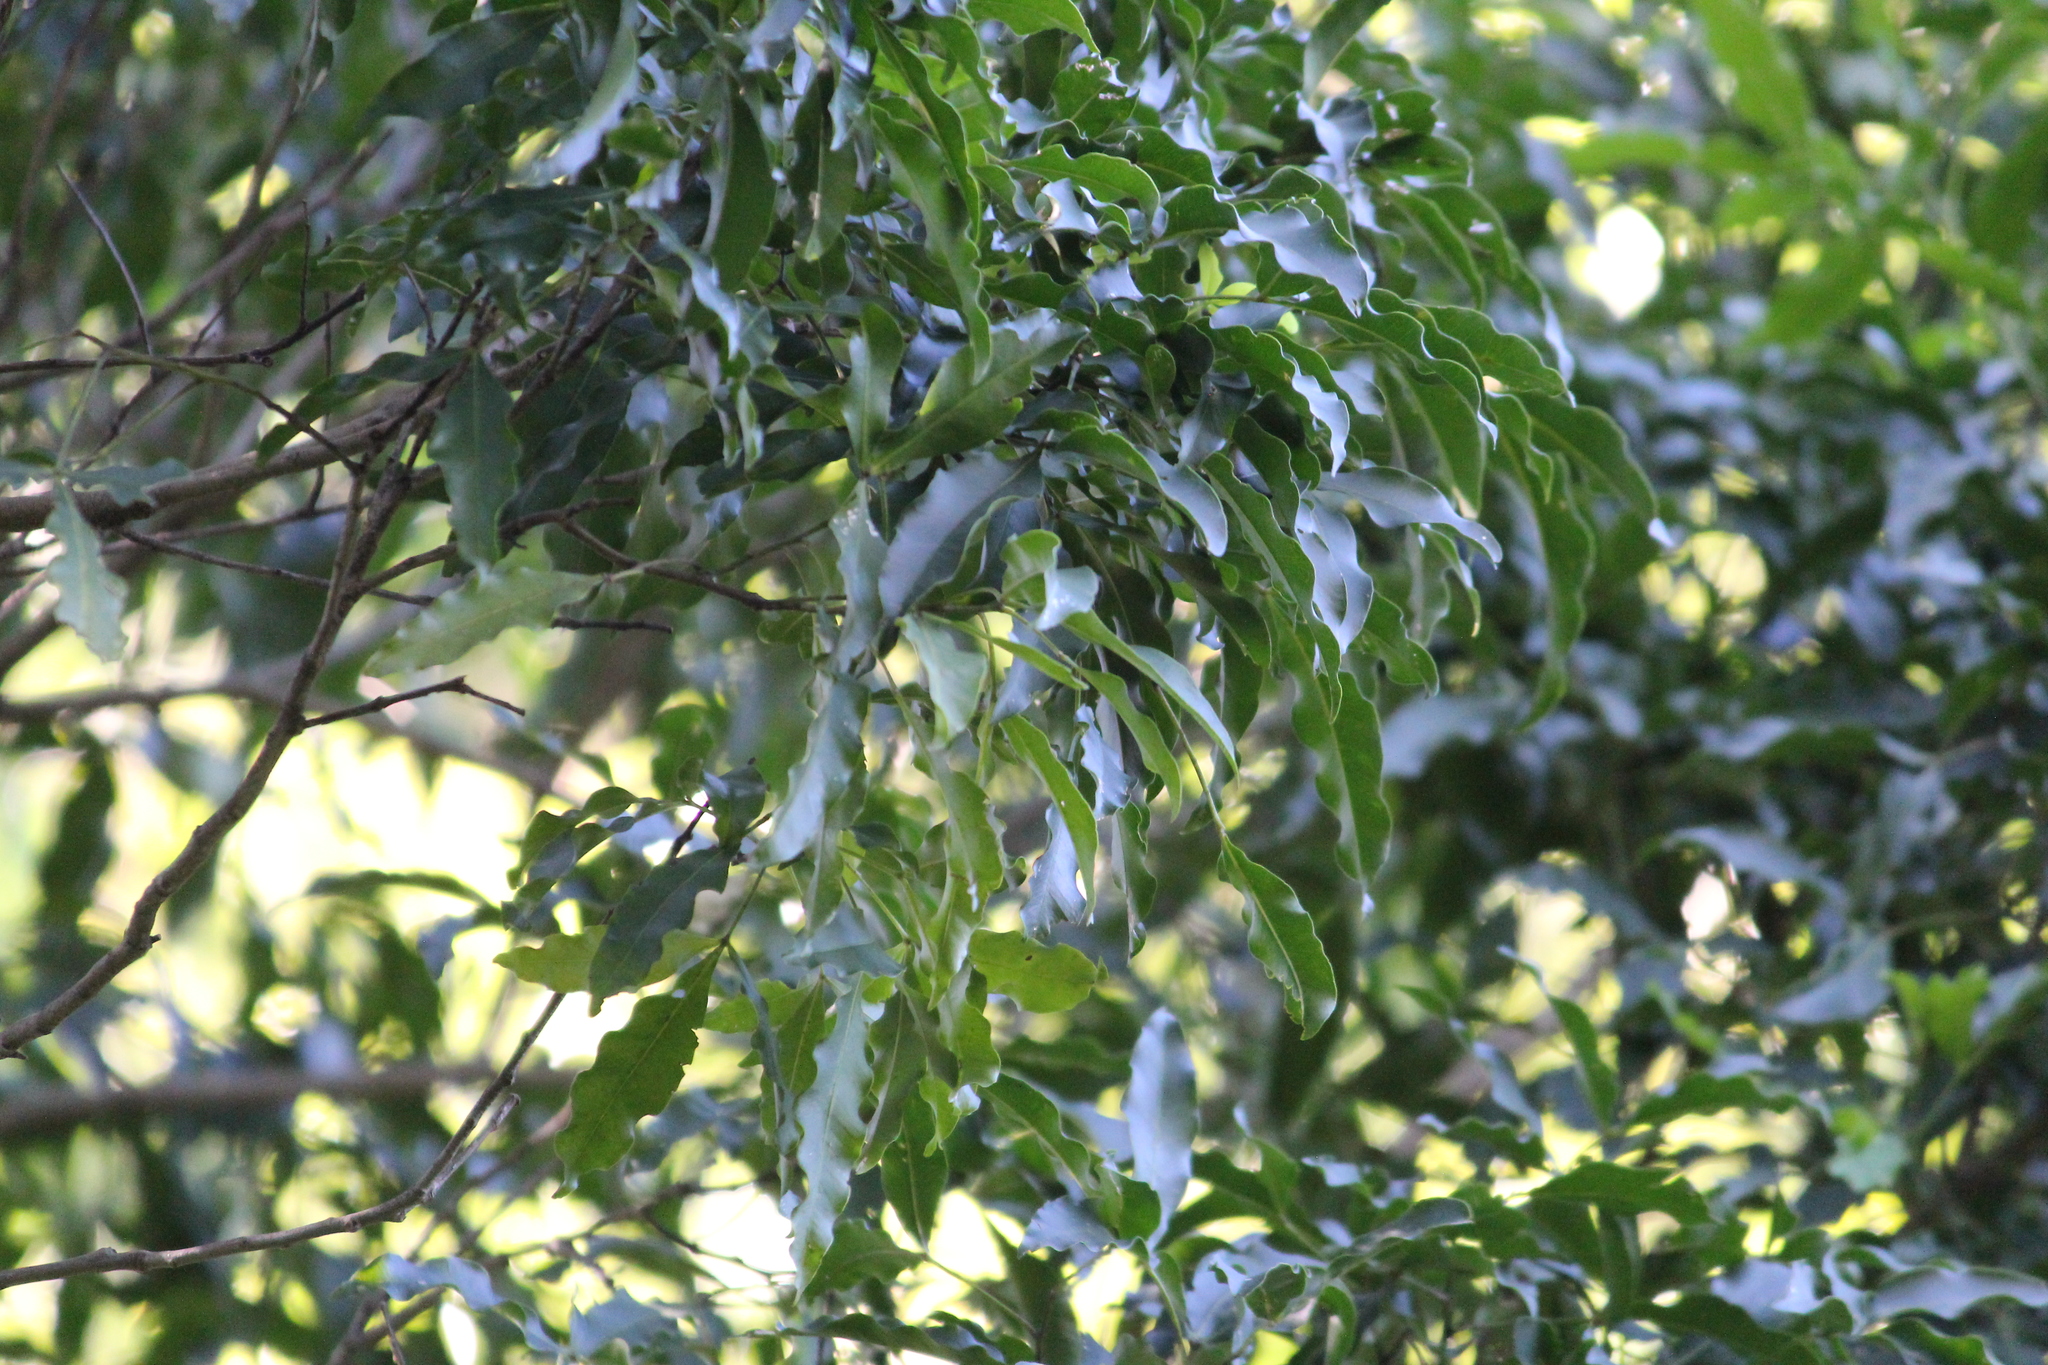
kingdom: Plantae
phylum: Tracheophyta
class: Magnoliopsida
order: Sapindales
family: Rutaceae
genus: Vepris
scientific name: Vepris lanceolata
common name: White ironwood
